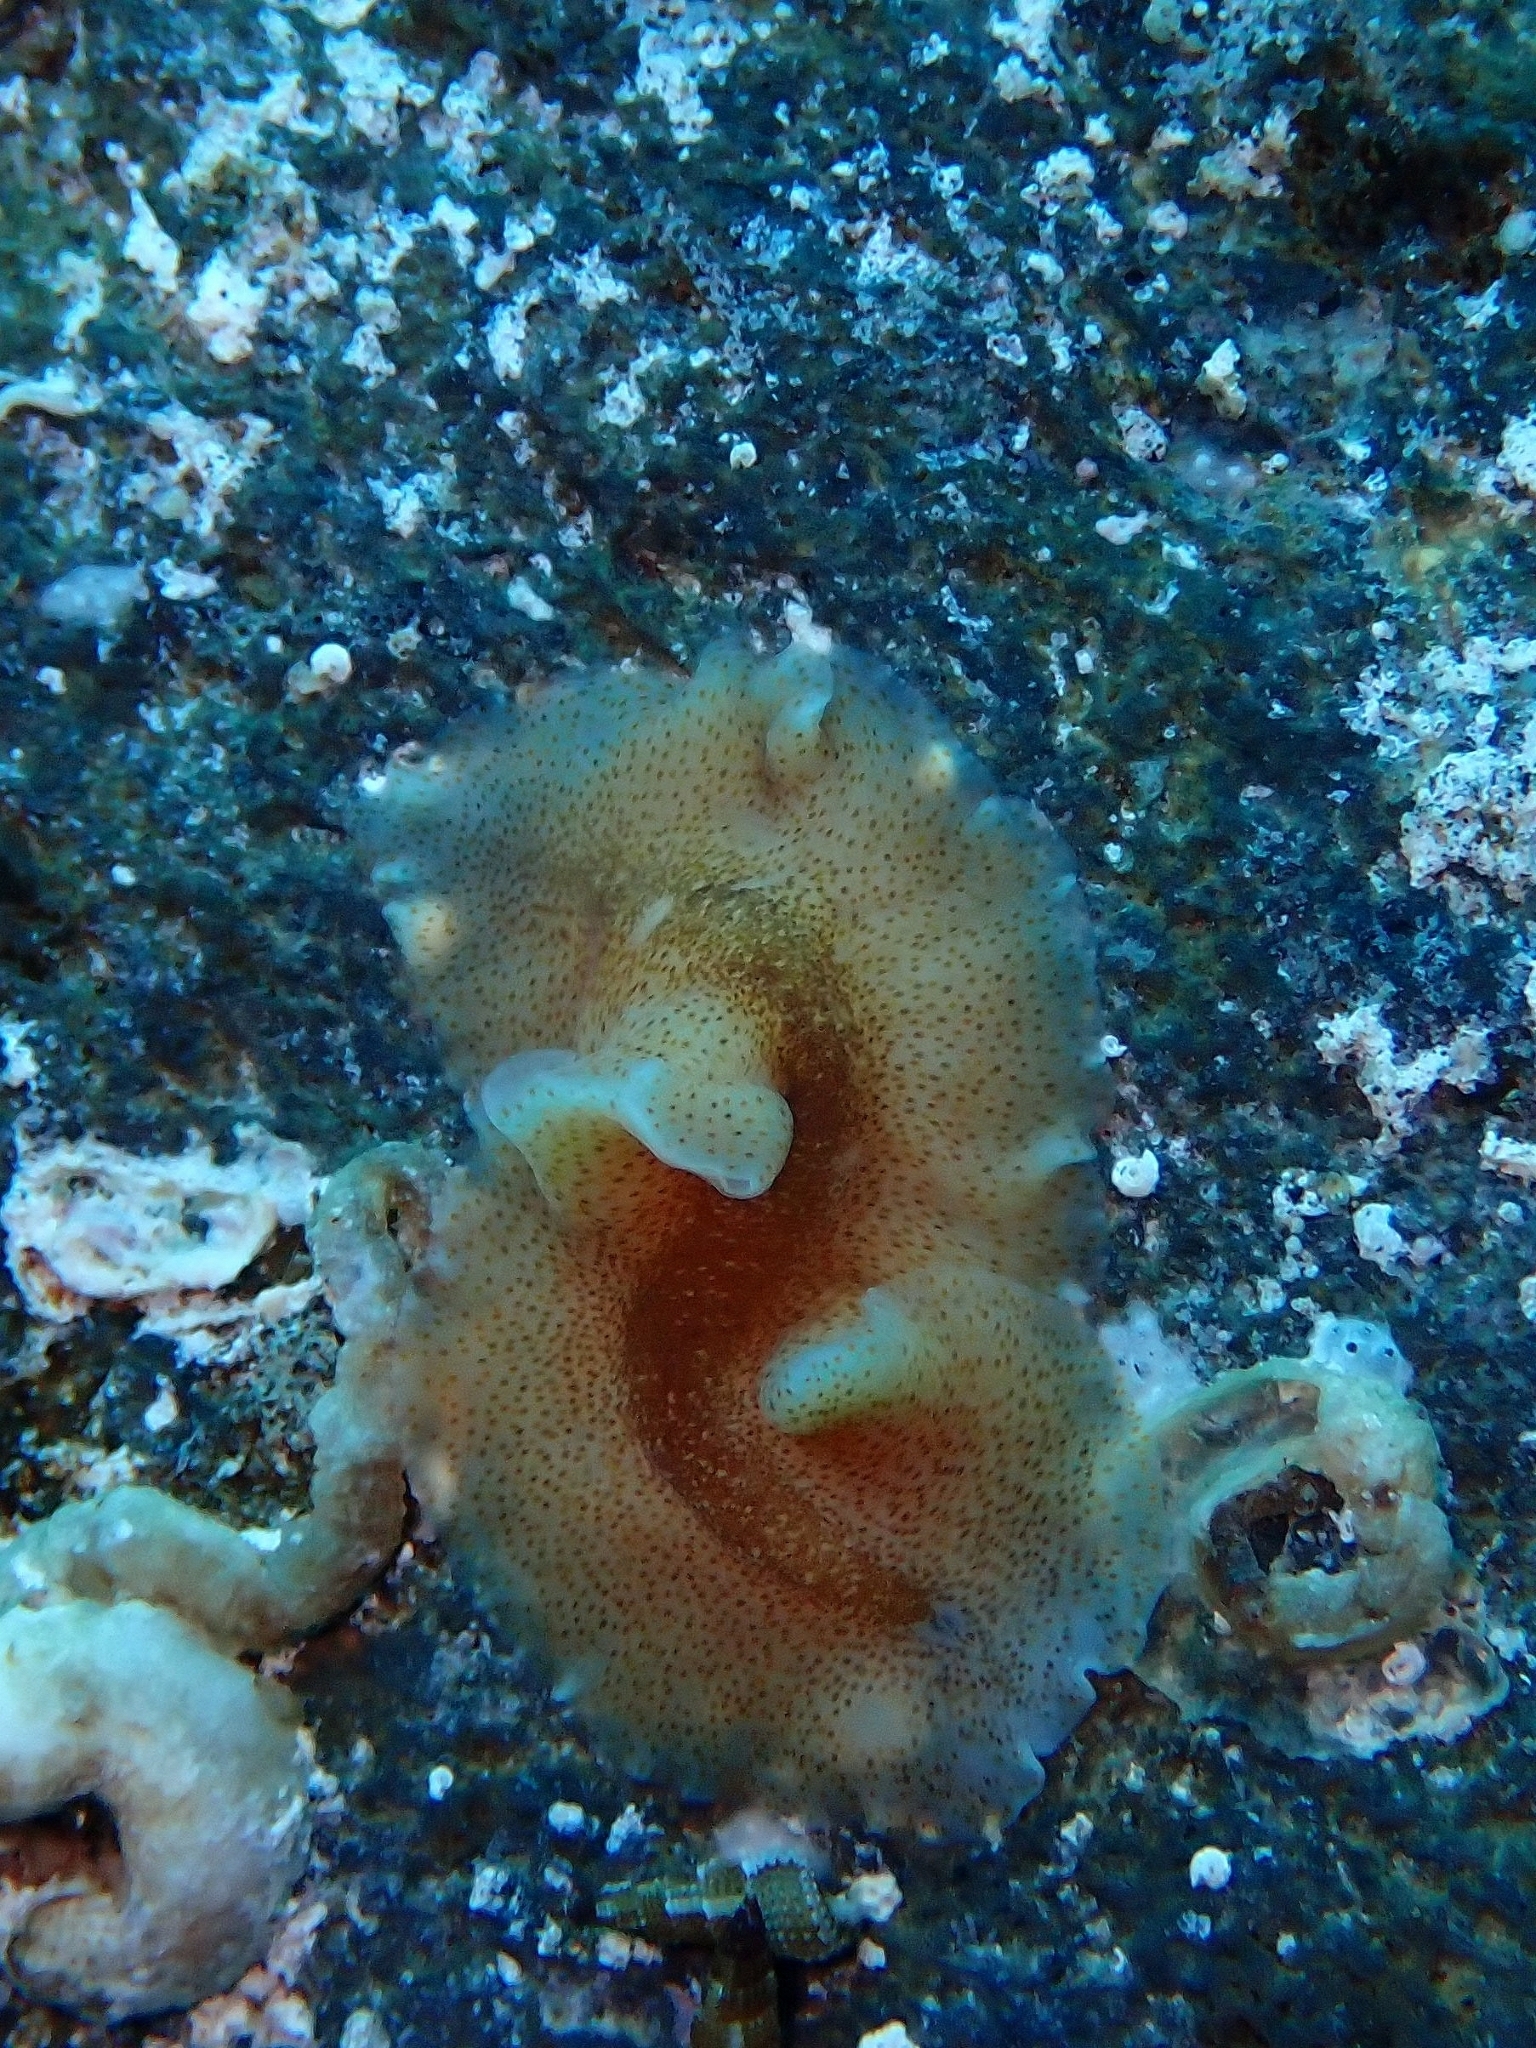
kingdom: Animalia
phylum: Platyhelminthes
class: Turbellaria
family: Prosthiostomidae
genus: Enchiridium
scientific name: Enchiridium magec
